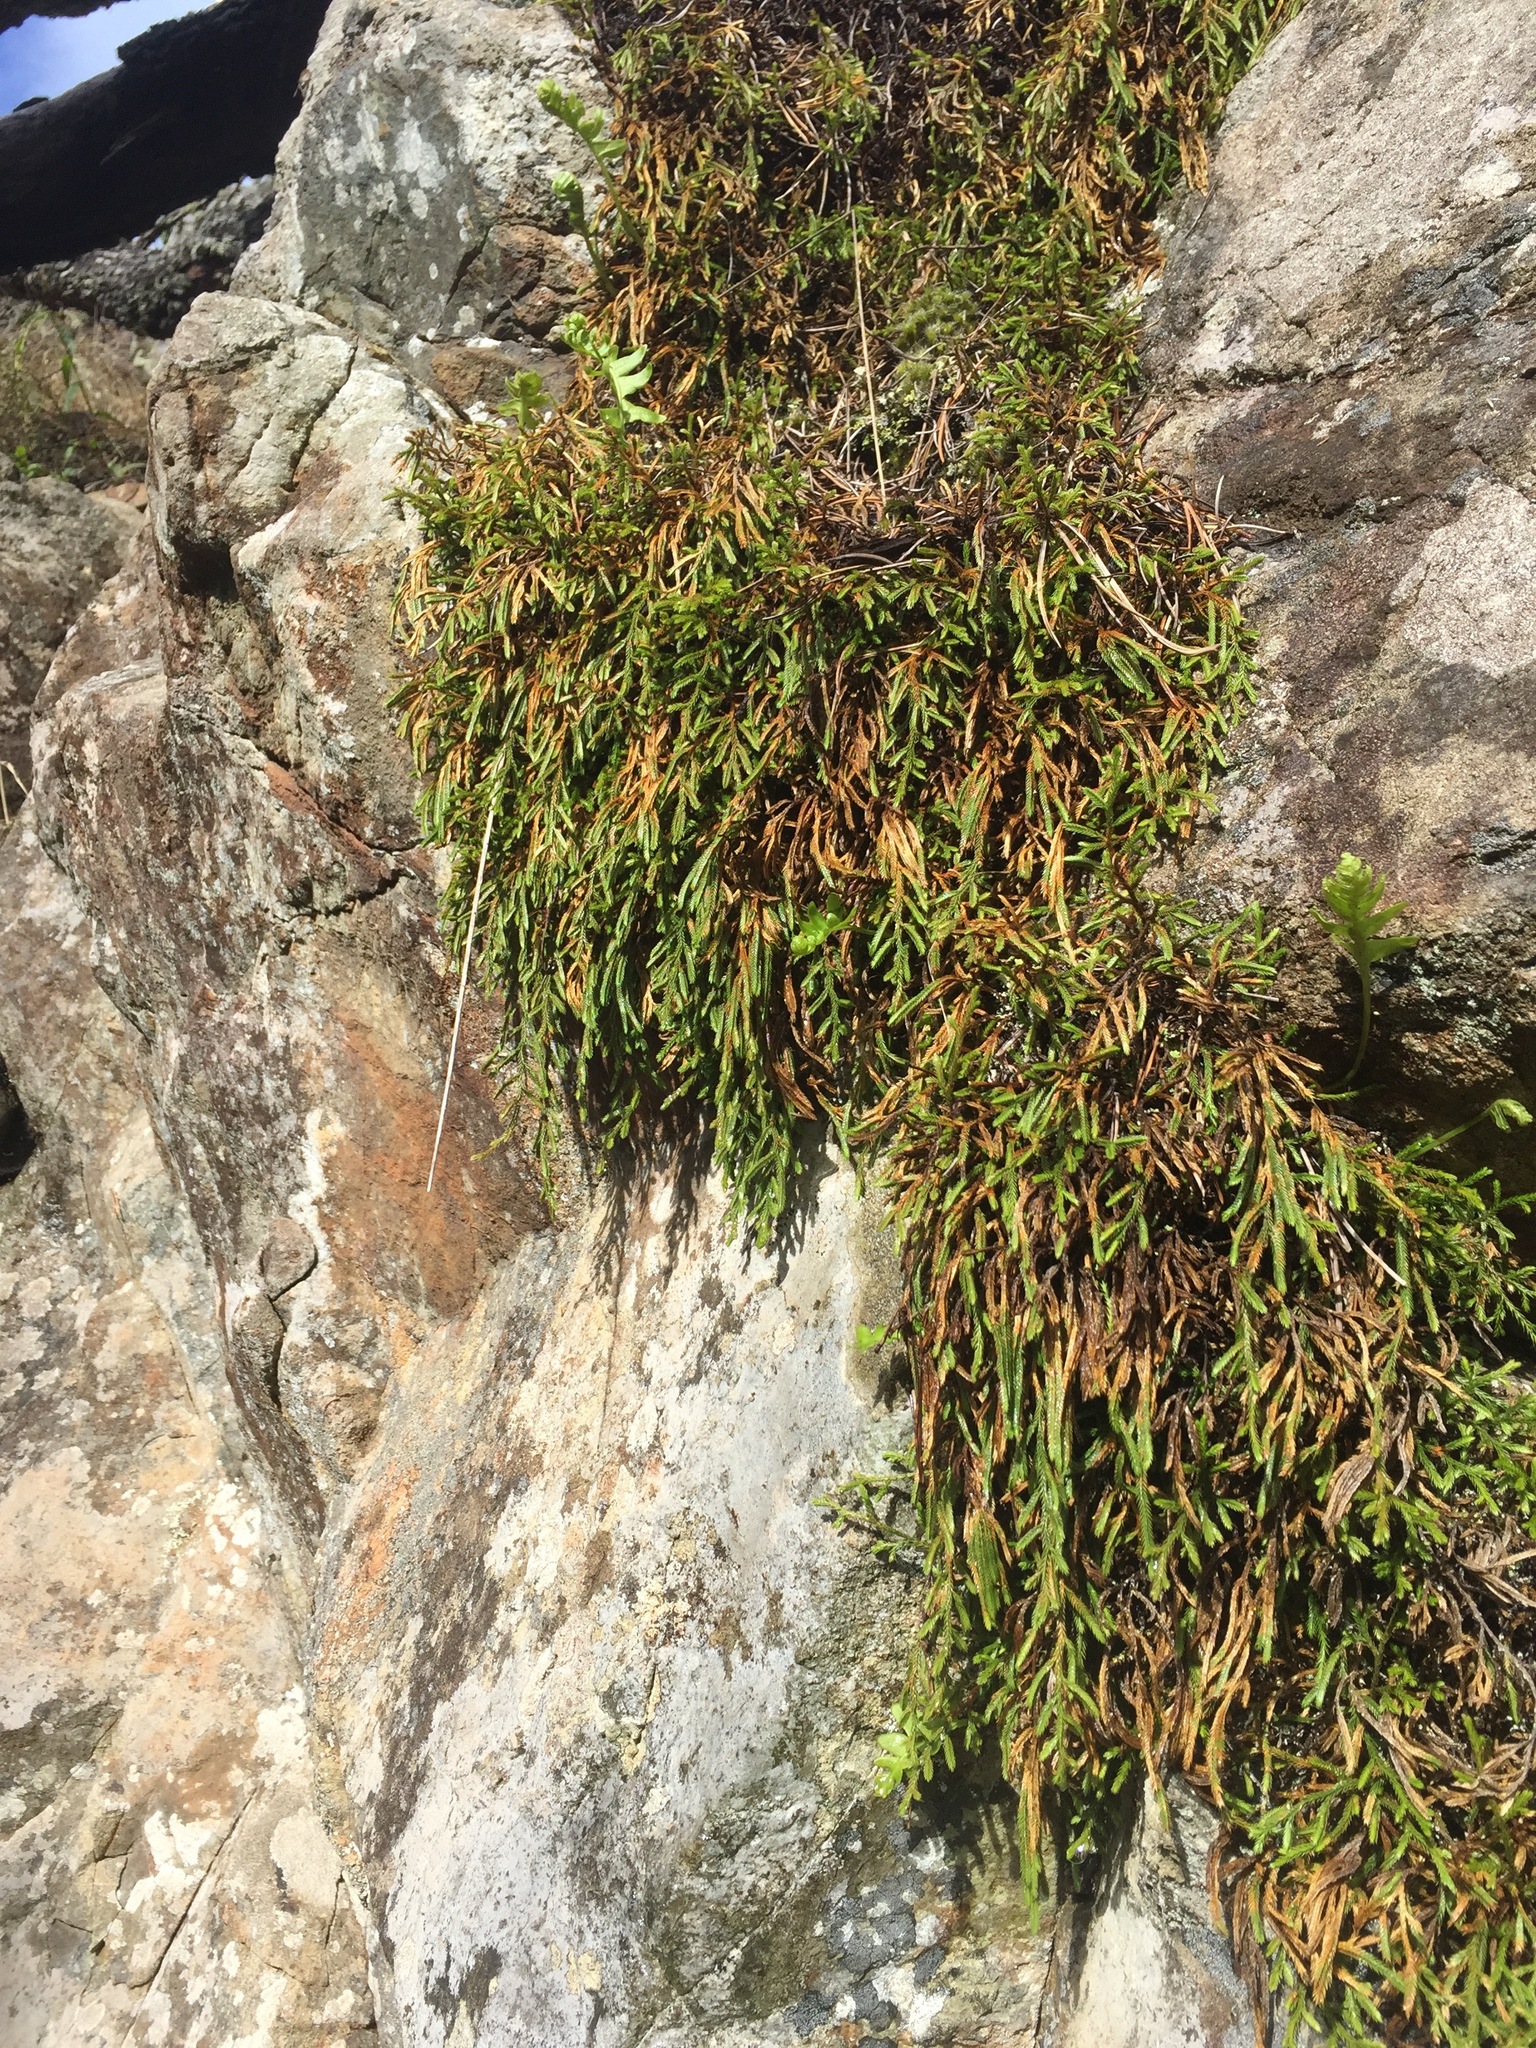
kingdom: Plantae
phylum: Tracheophyta
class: Lycopodiopsida
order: Selaginellales
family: Selaginellaceae
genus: Selaginella
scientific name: Selaginella oregana
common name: Oregon selaginella
